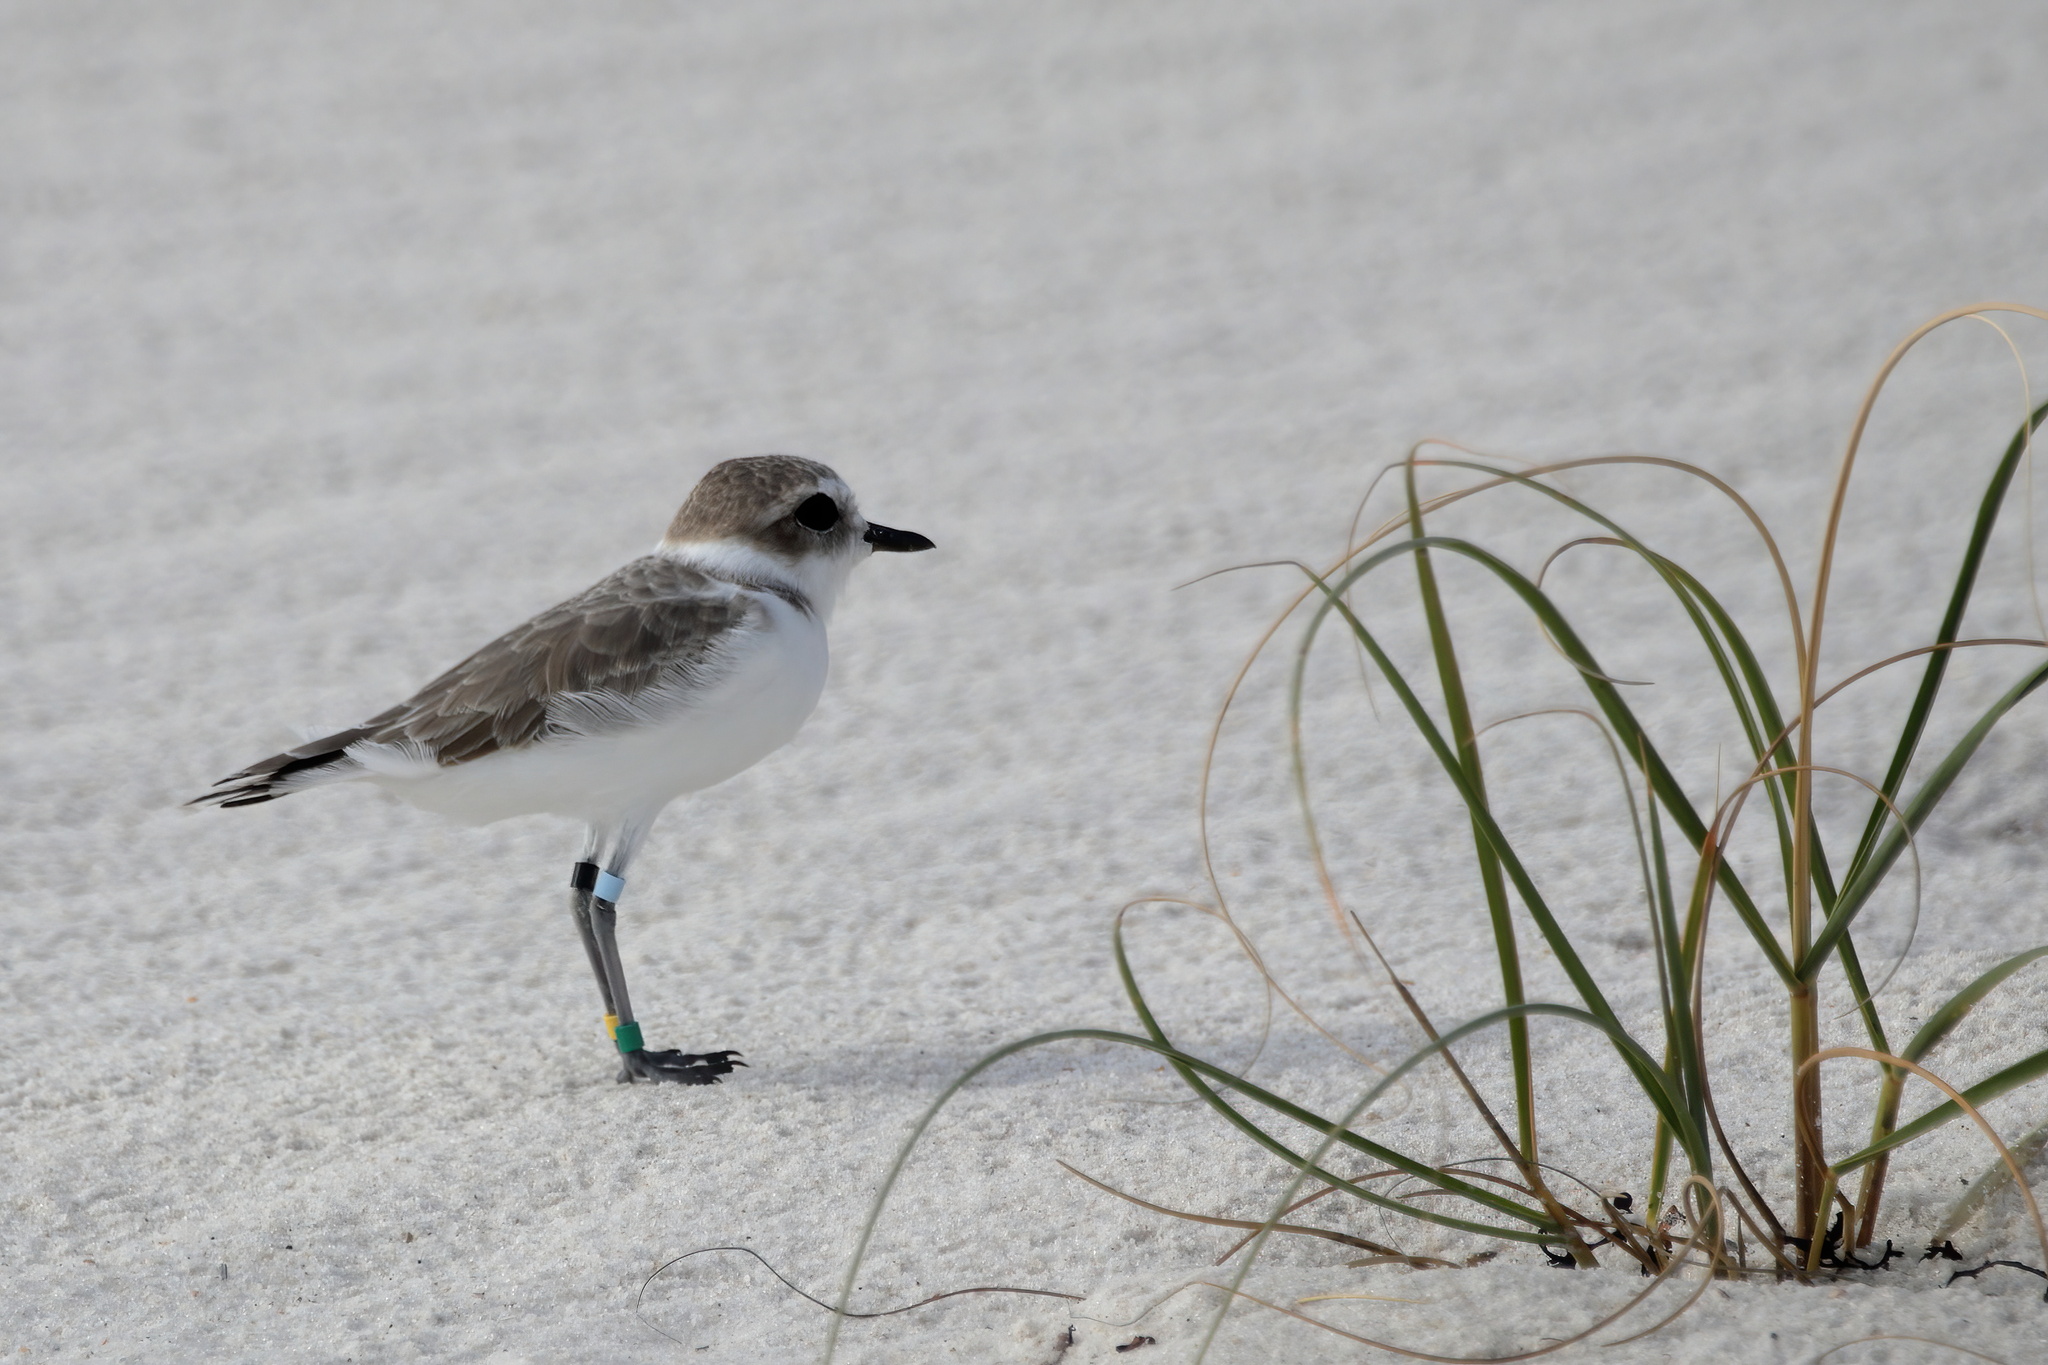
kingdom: Animalia
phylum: Chordata
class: Aves
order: Charadriiformes
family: Charadriidae
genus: Anarhynchus
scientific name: Anarhynchus
